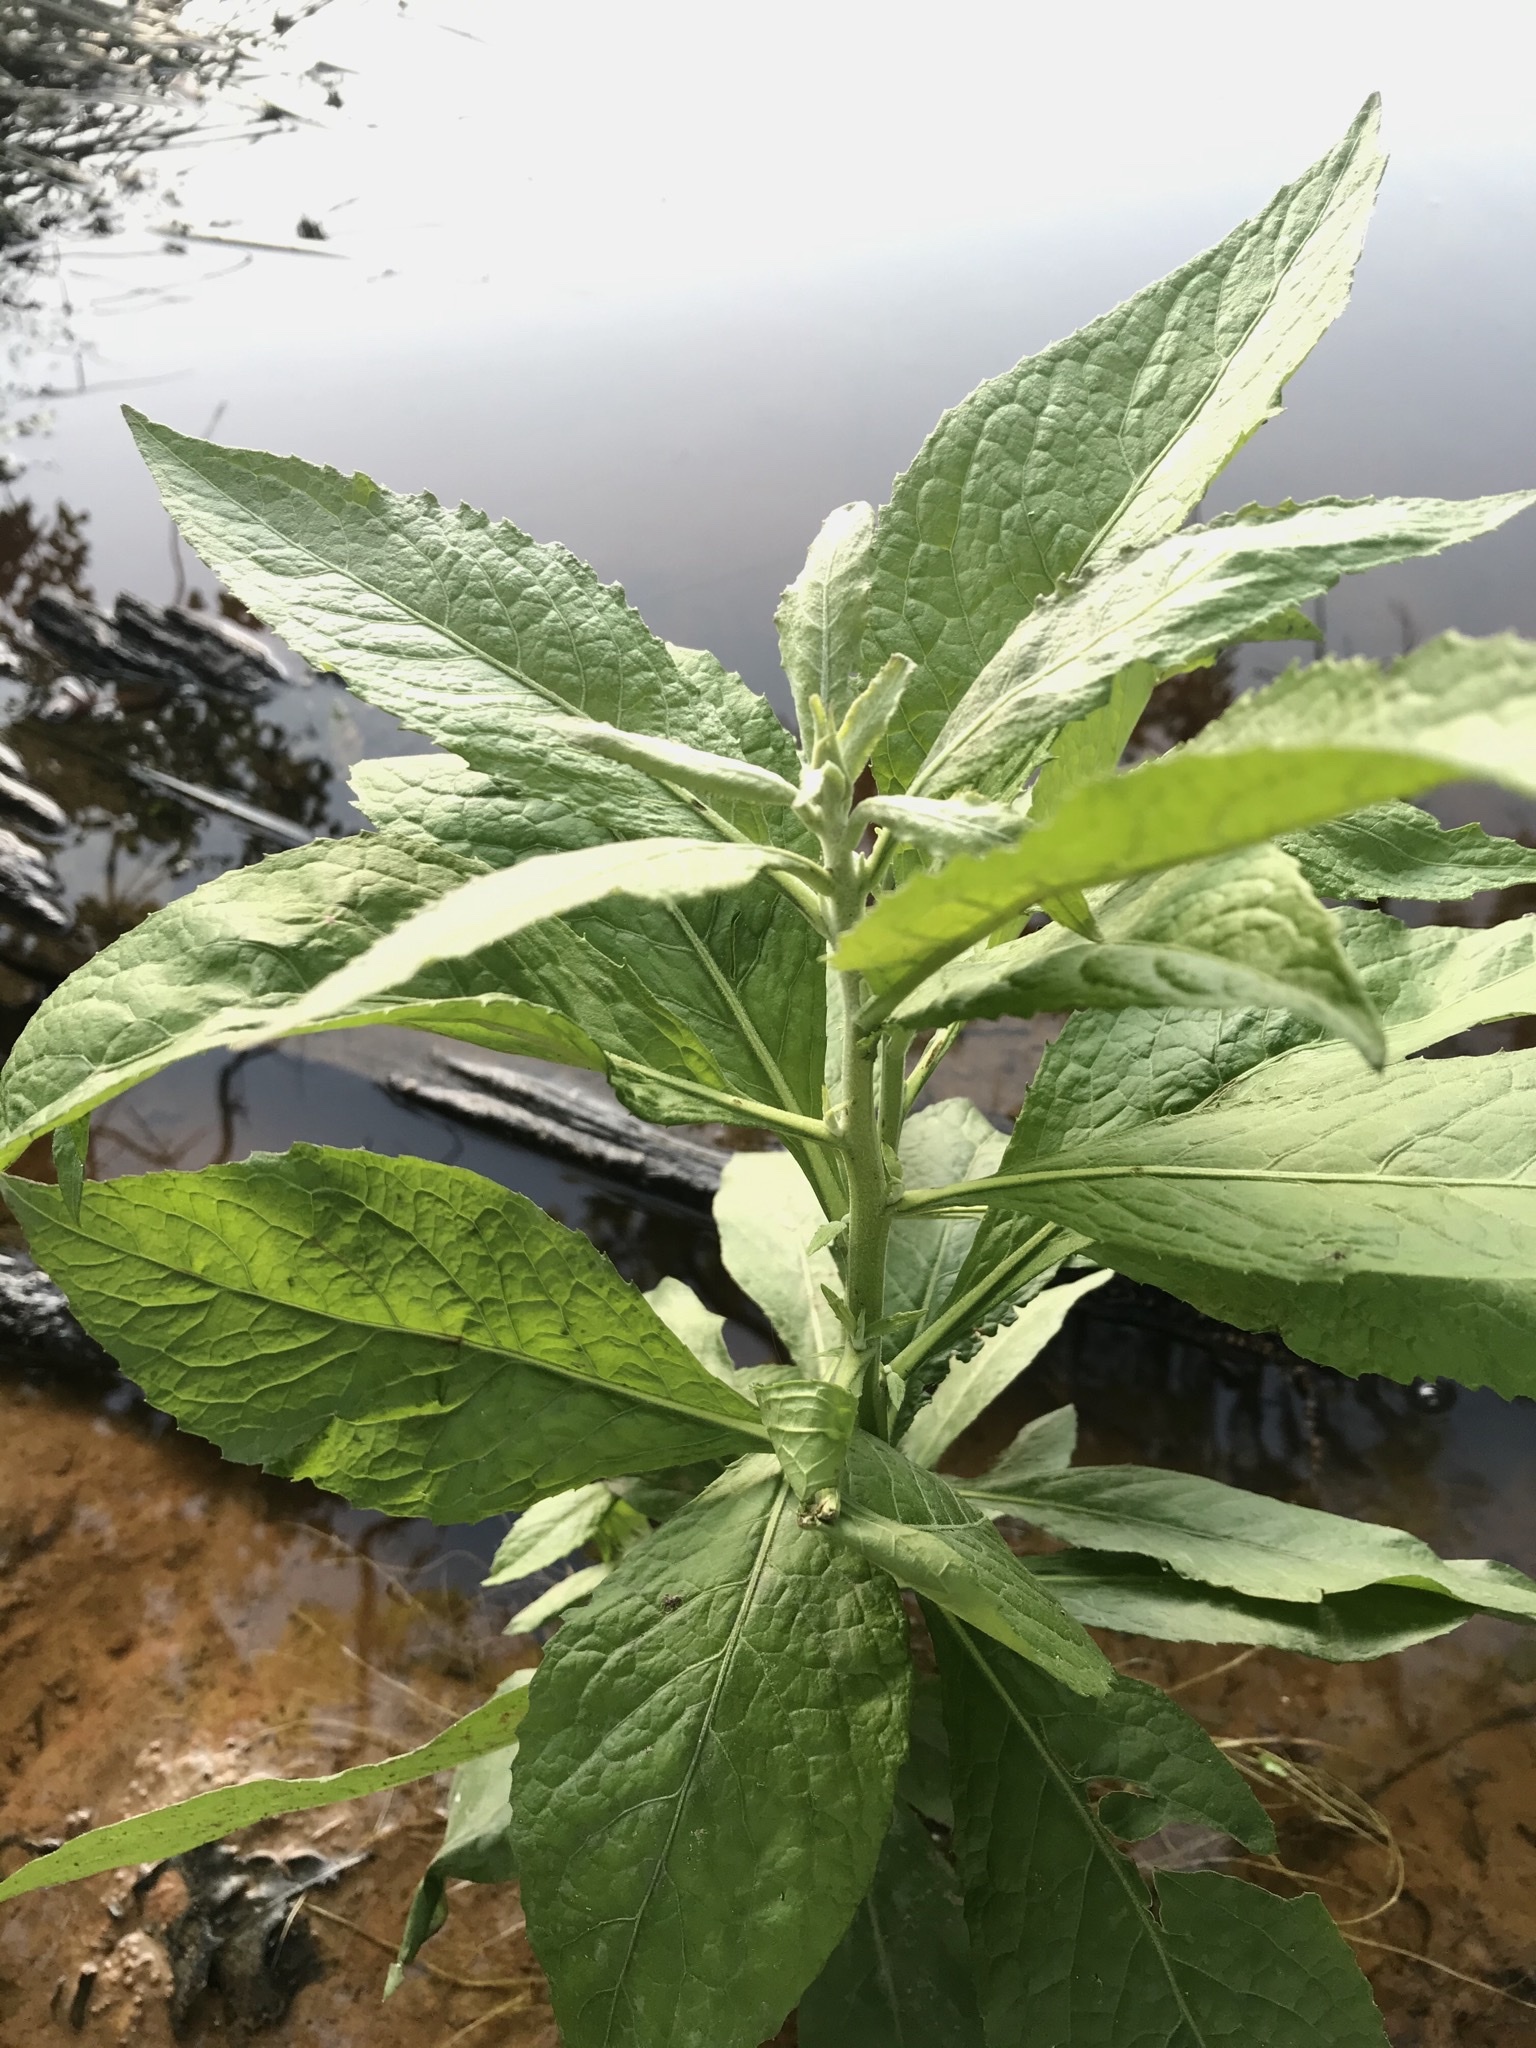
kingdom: Plantae
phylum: Tracheophyta
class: Magnoliopsida
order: Asterales
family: Asteraceae
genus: Pluchea
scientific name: Pluchea camphorata
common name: Camphor pluchea
